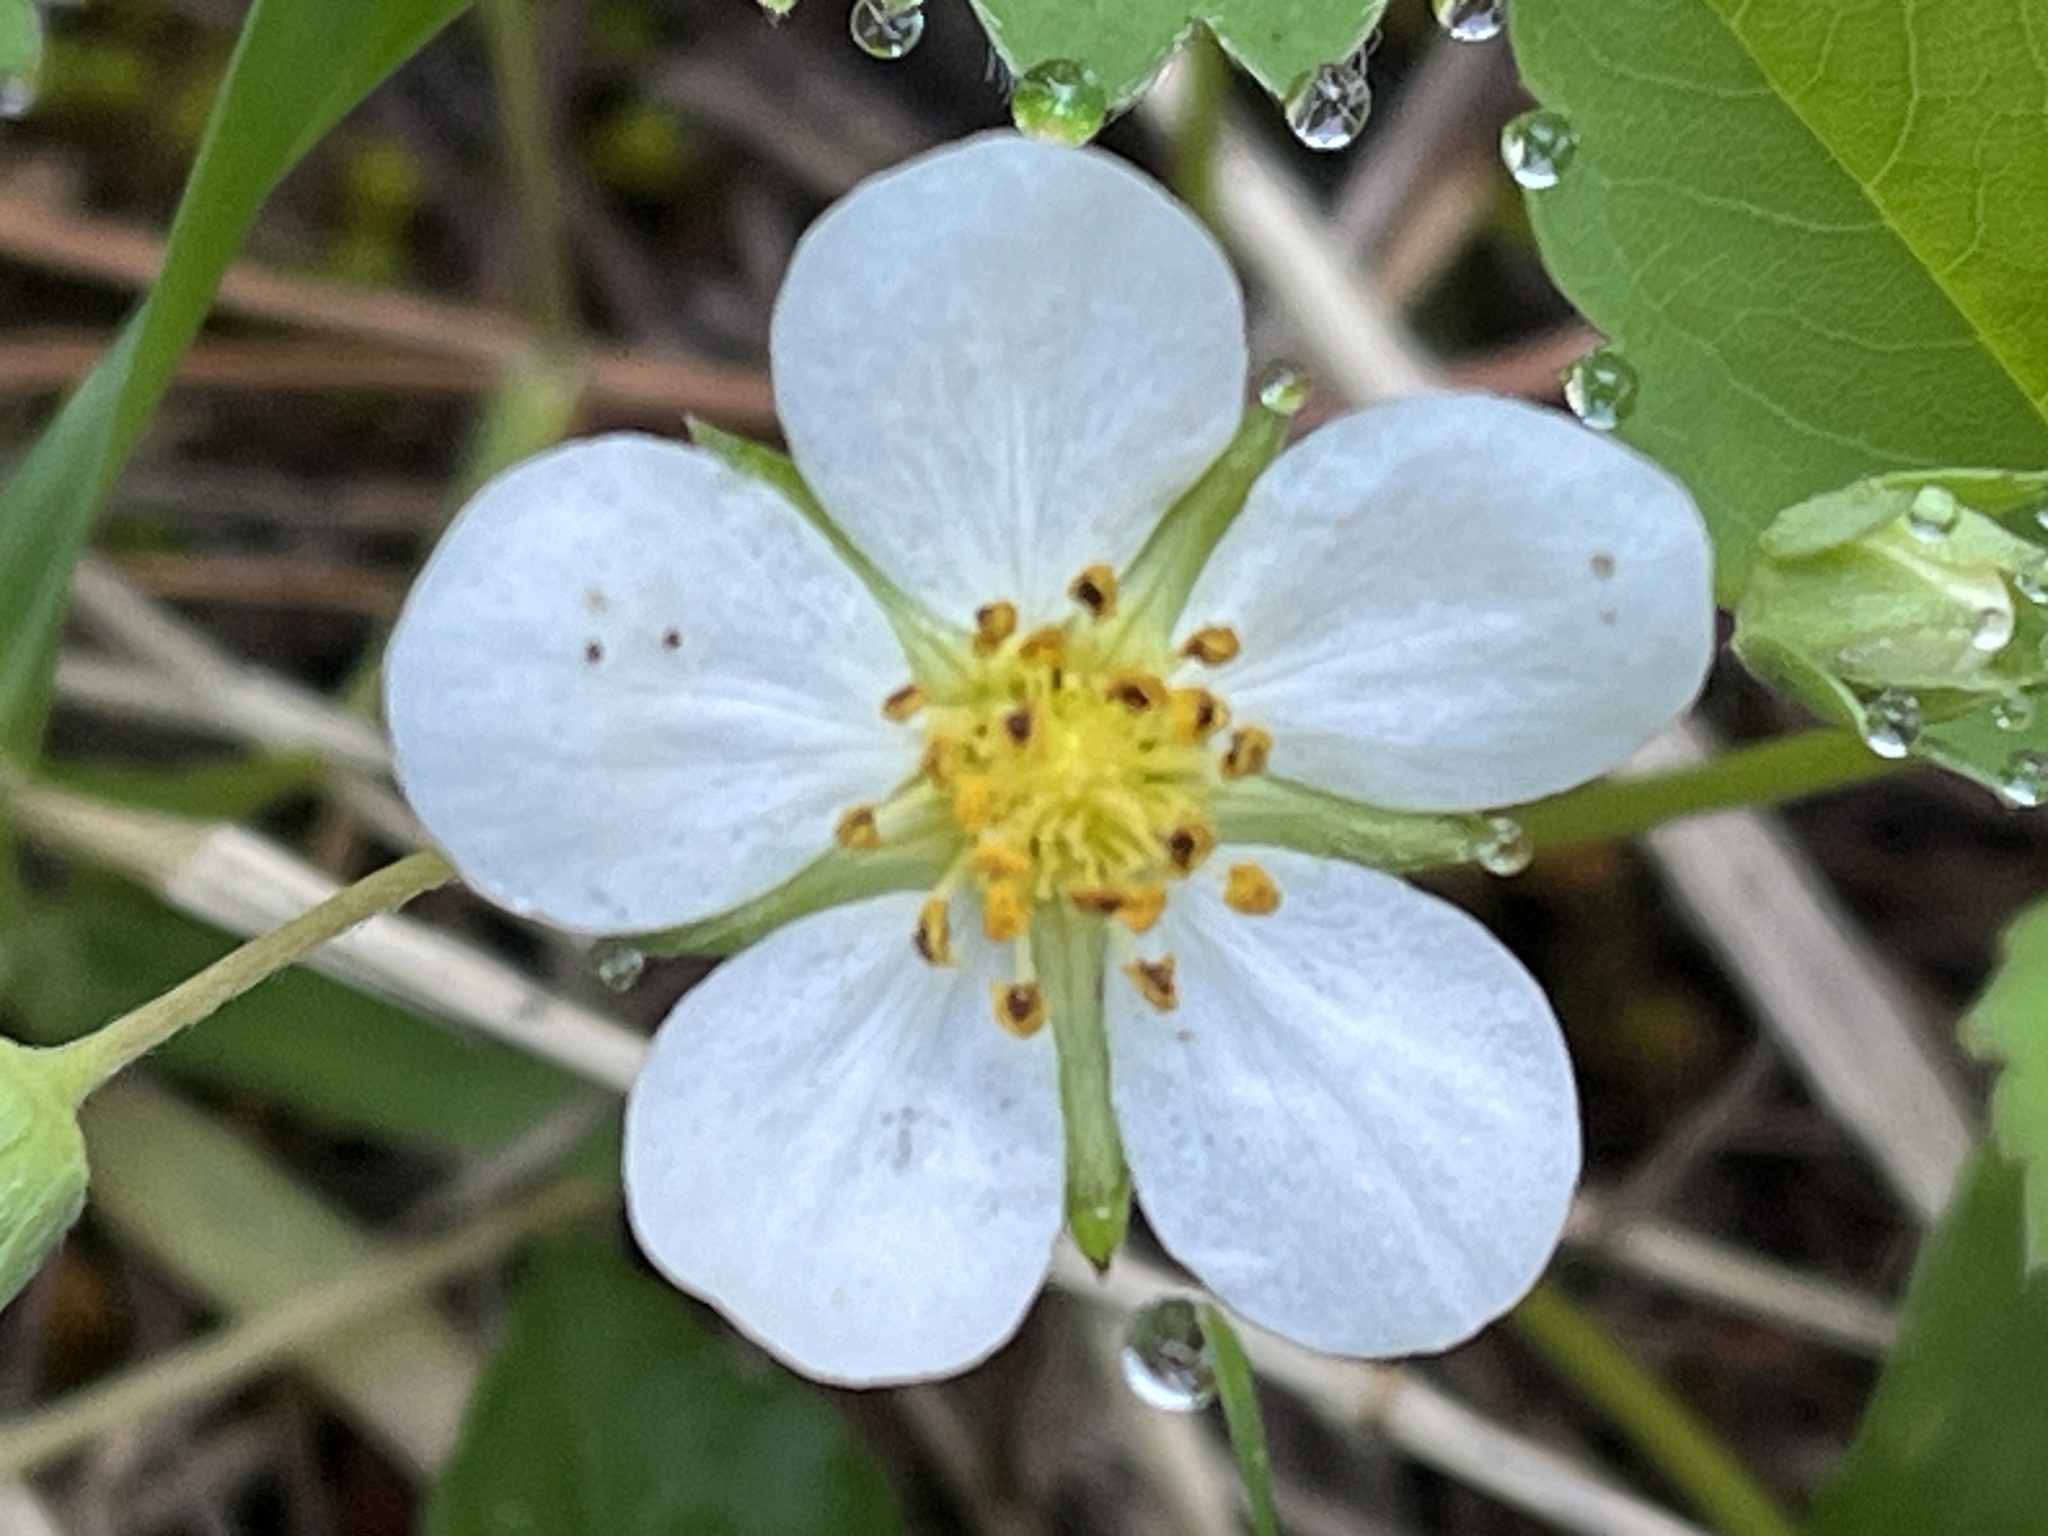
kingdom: Plantae
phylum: Tracheophyta
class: Magnoliopsida
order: Rosales
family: Rosaceae
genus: Fragaria
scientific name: Fragaria virginiana
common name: Thickleaved wild strawberry
